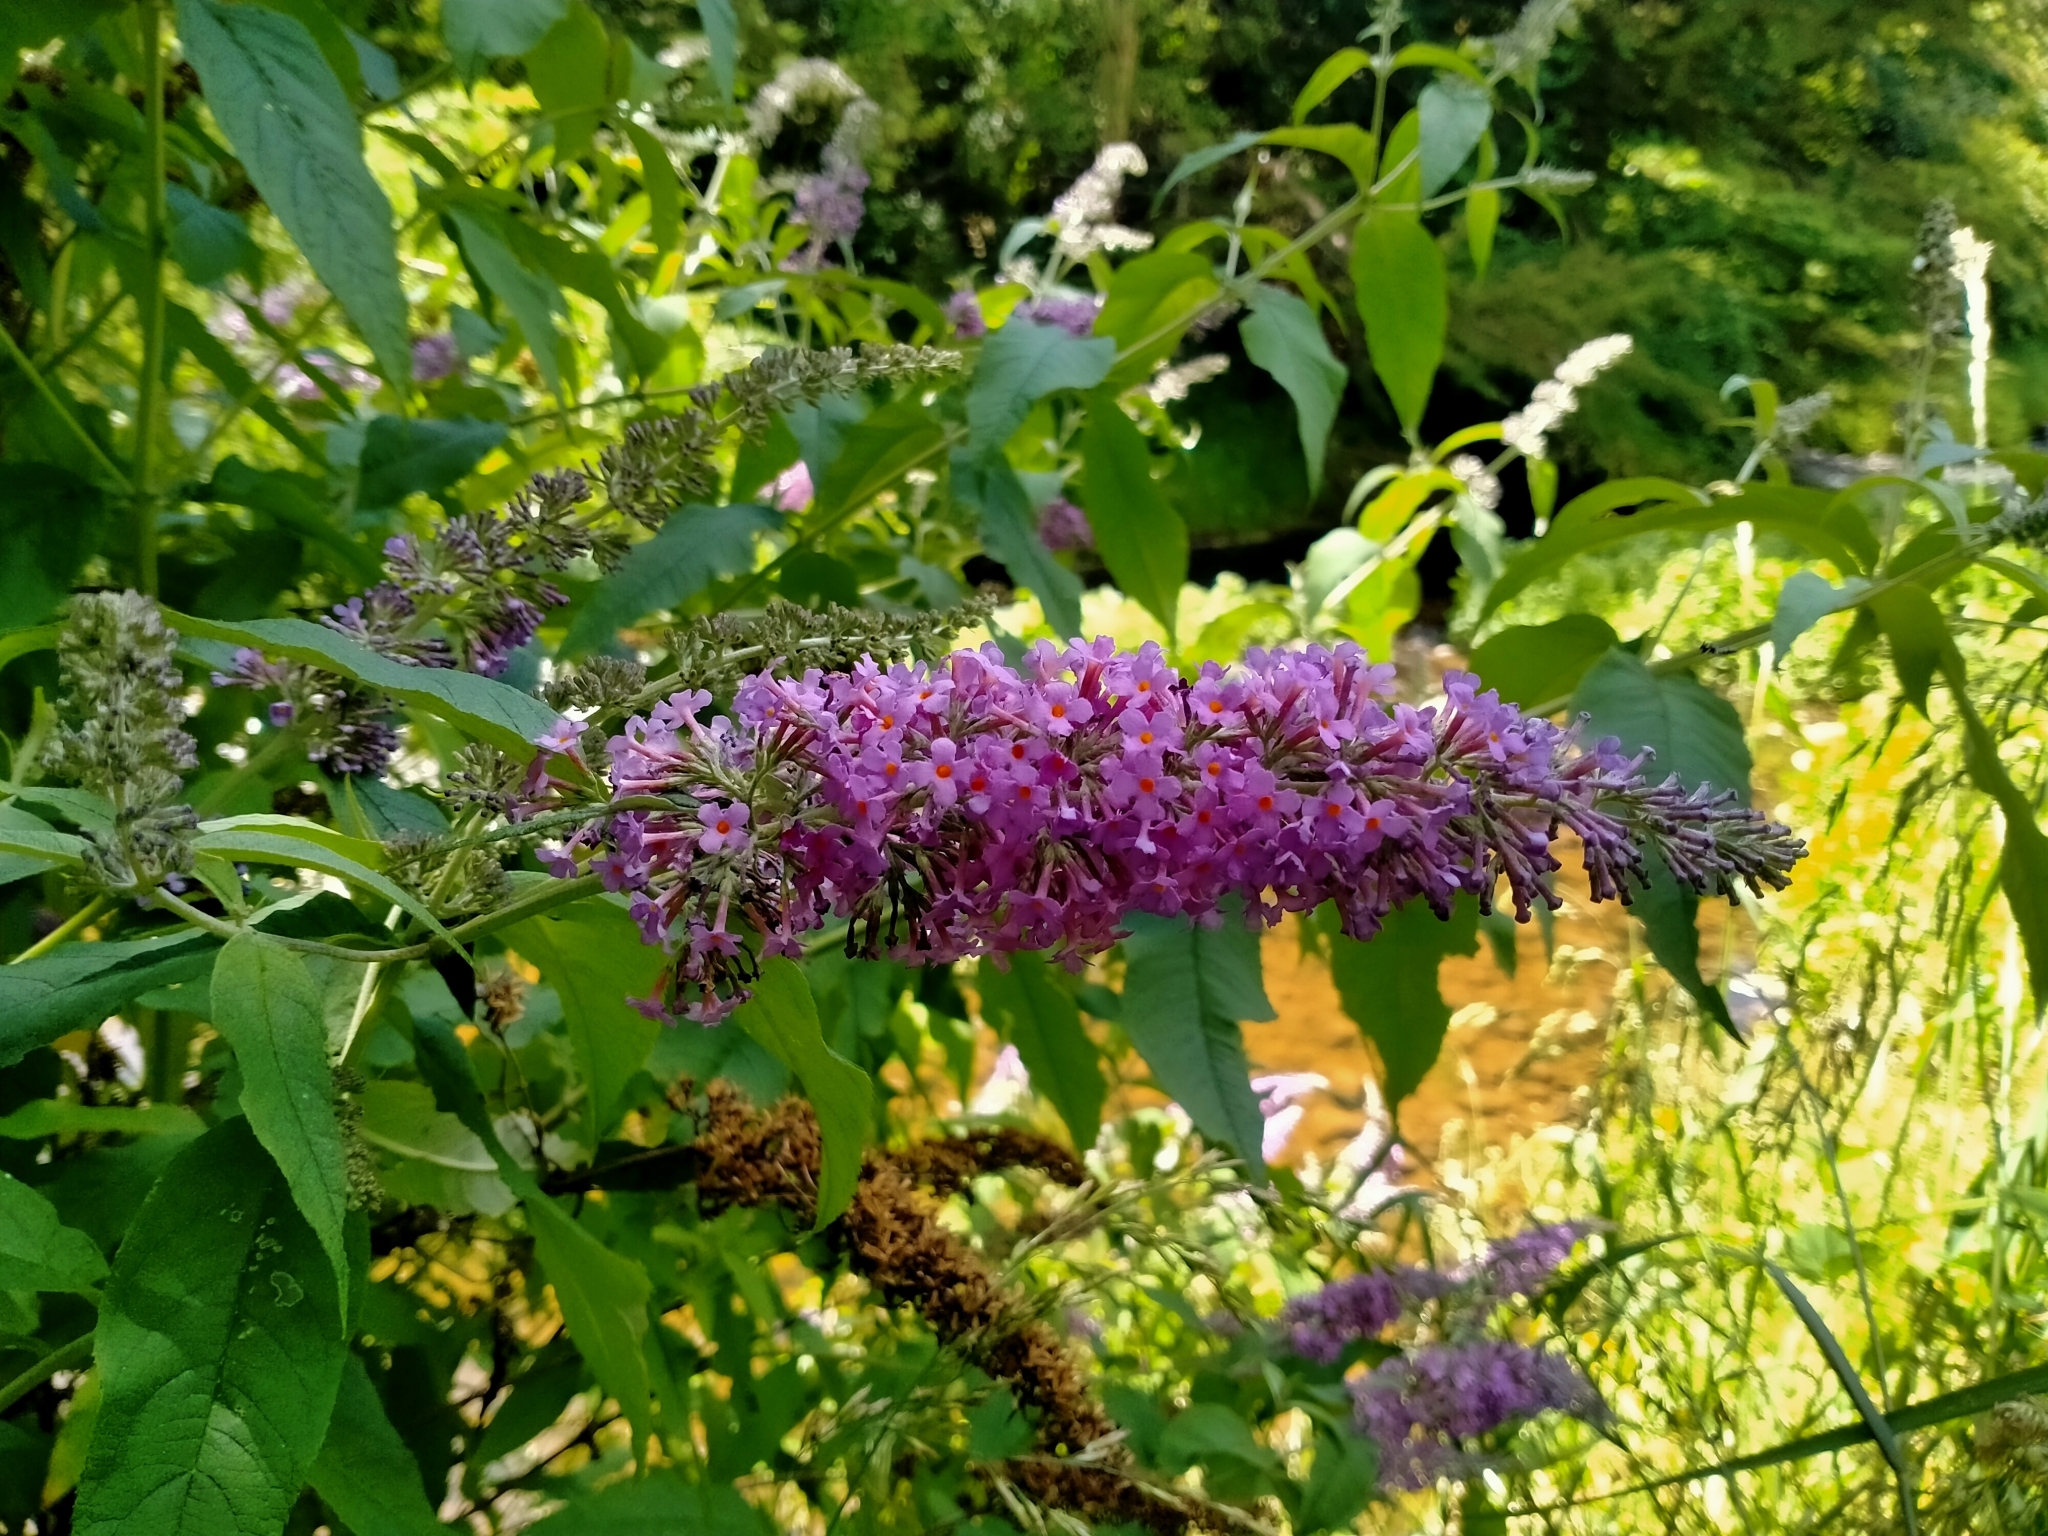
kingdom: Plantae
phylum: Tracheophyta
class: Magnoliopsida
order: Lamiales
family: Scrophulariaceae
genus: Buddleja
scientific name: Buddleja davidii
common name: Butterfly-bush
